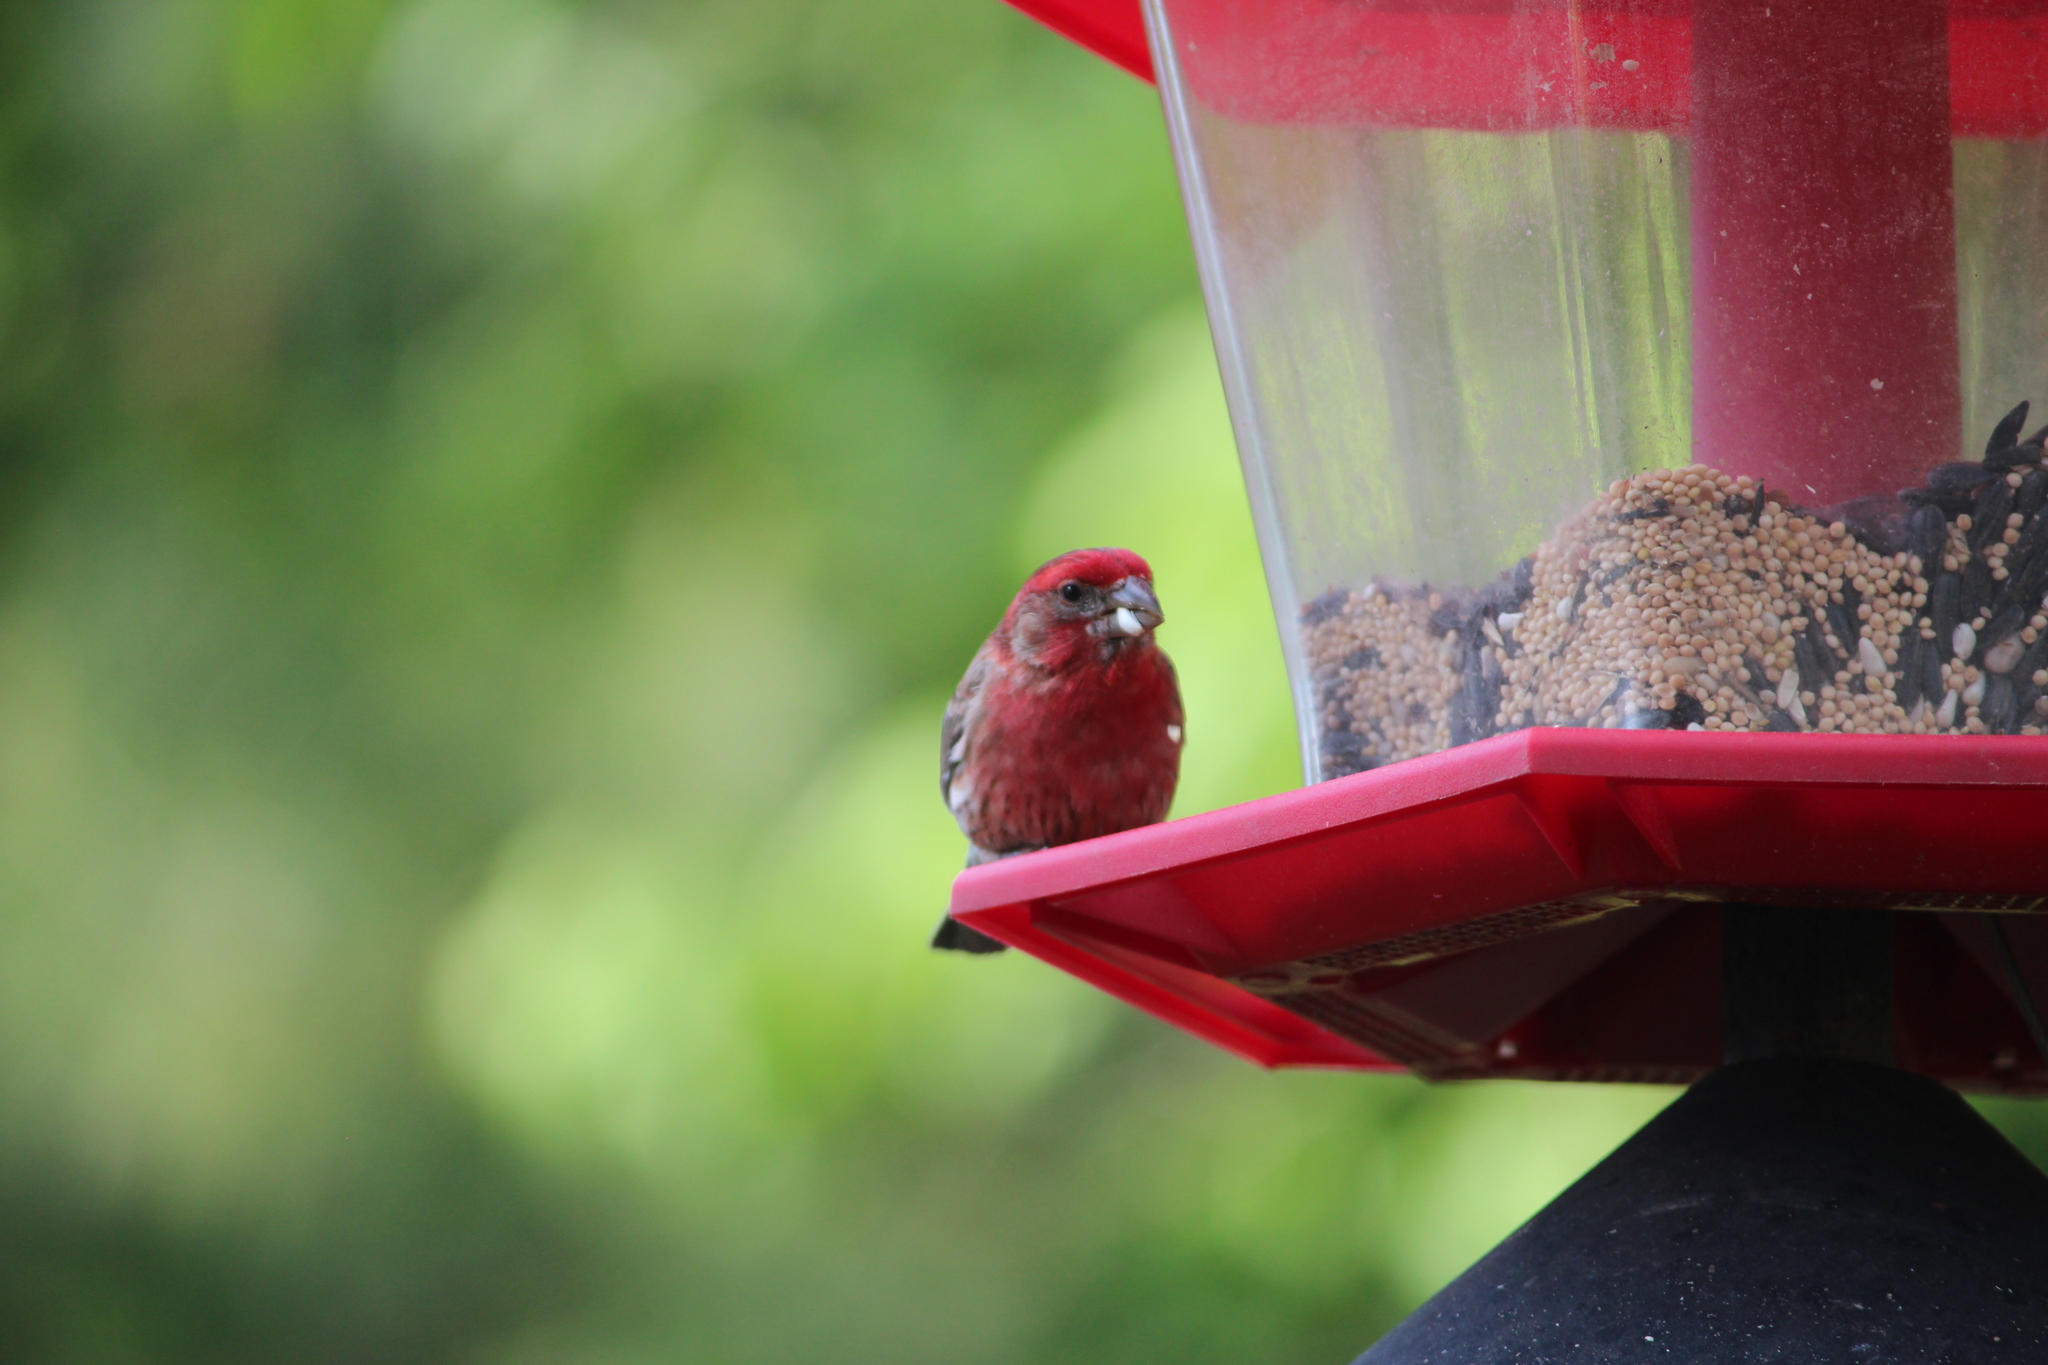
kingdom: Animalia
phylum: Chordata
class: Aves
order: Passeriformes
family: Fringillidae
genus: Haemorhous
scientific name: Haemorhous mexicanus
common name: House finch
